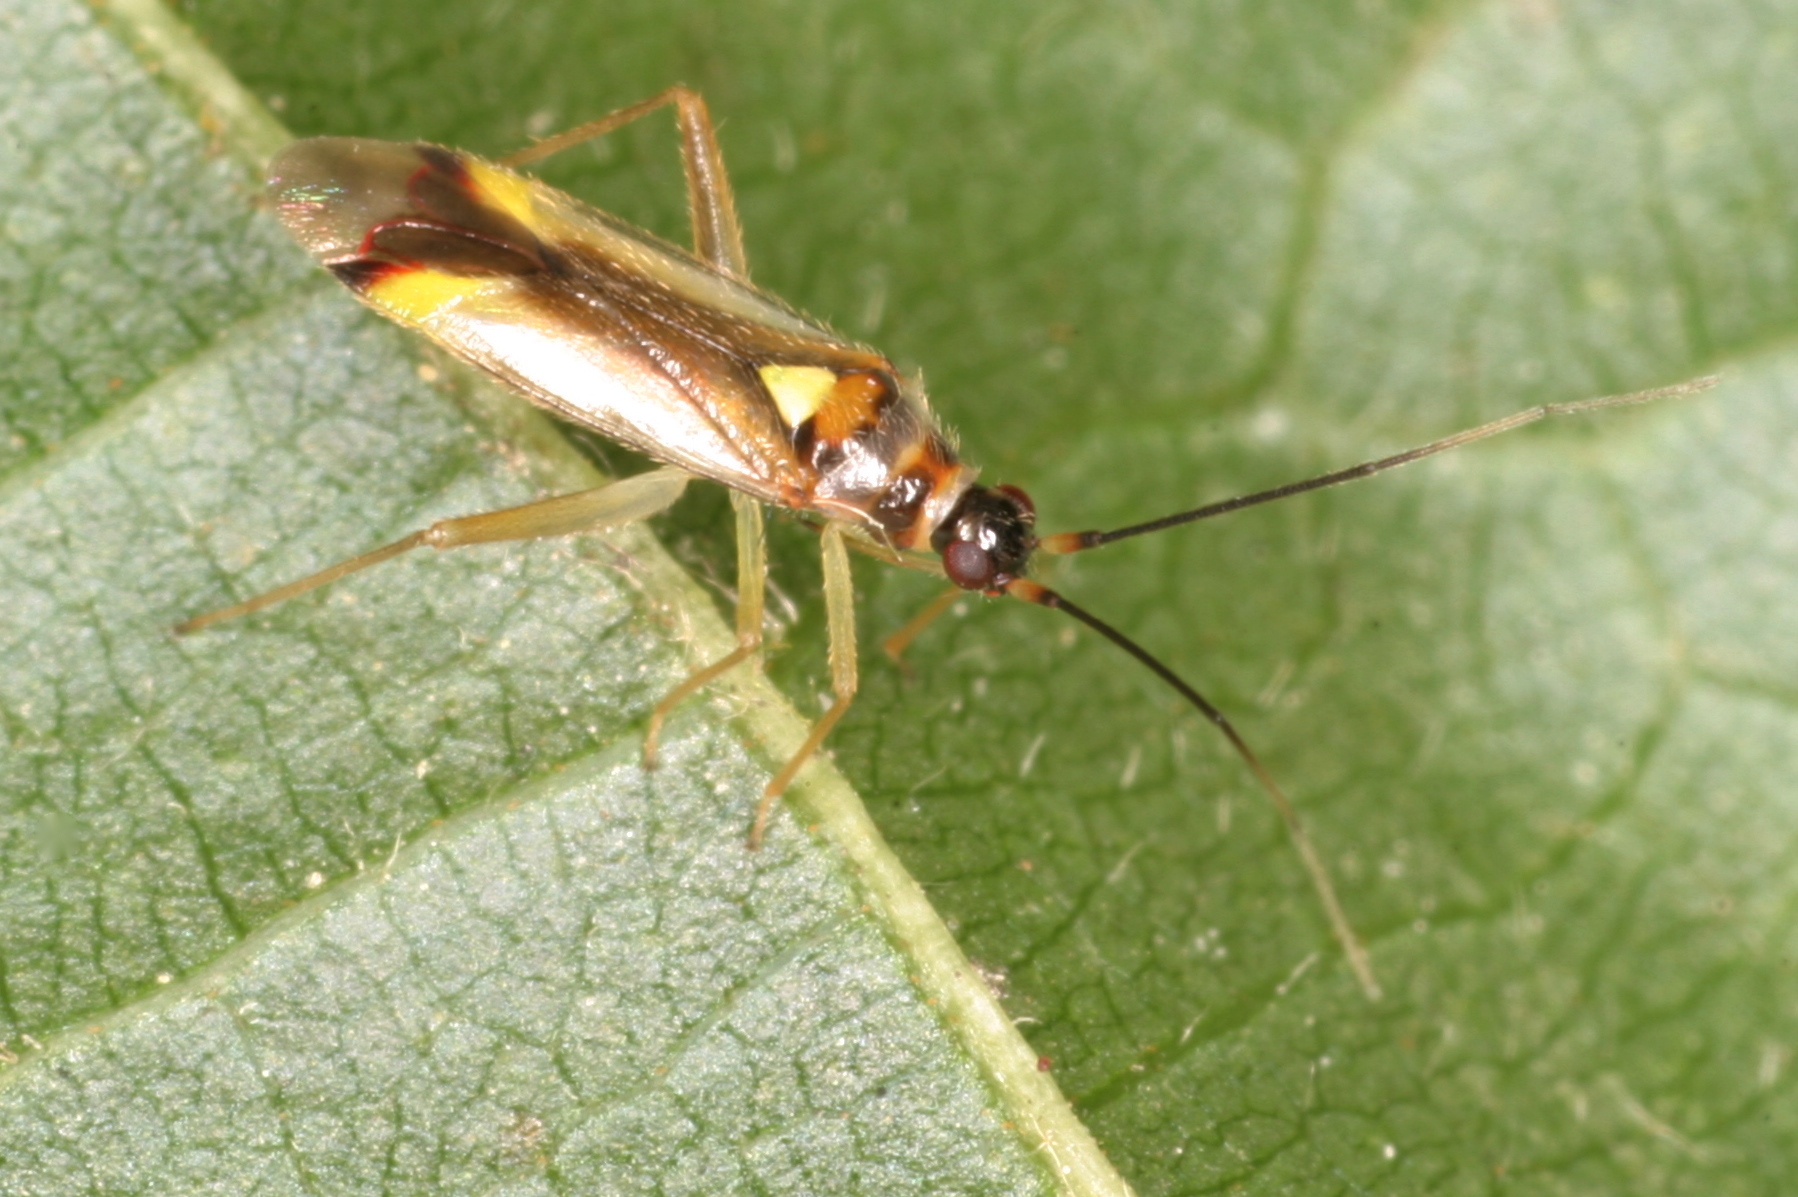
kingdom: Animalia
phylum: Arthropoda
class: Insecta
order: Hemiptera
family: Miridae
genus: Campyloneura
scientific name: Campyloneura virgula
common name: Predatory bug
